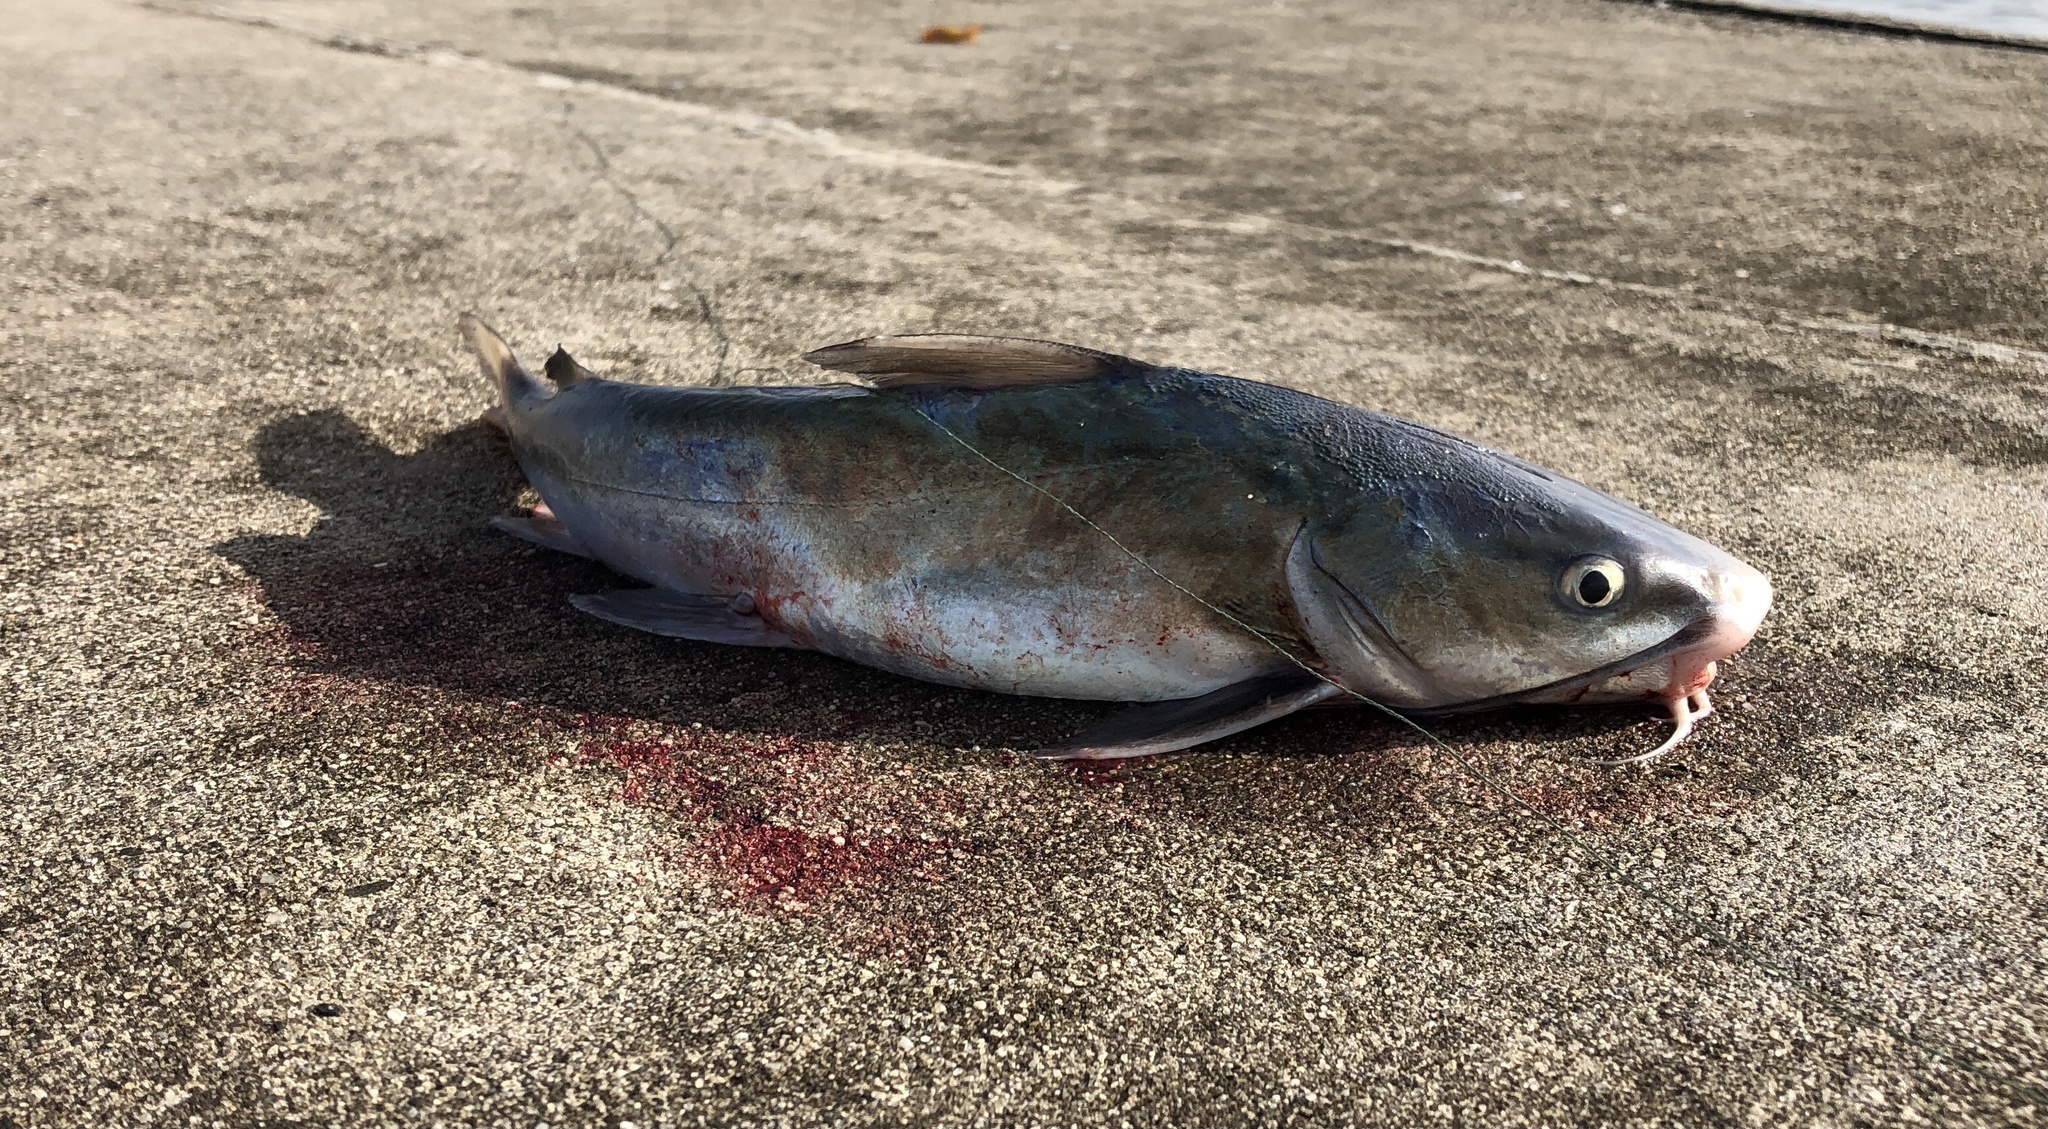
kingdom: Animalia
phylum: Chordata
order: Siluriformes
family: Ariidae
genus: Ariopsis
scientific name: Ariopsis felis
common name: Hardhead catfish
